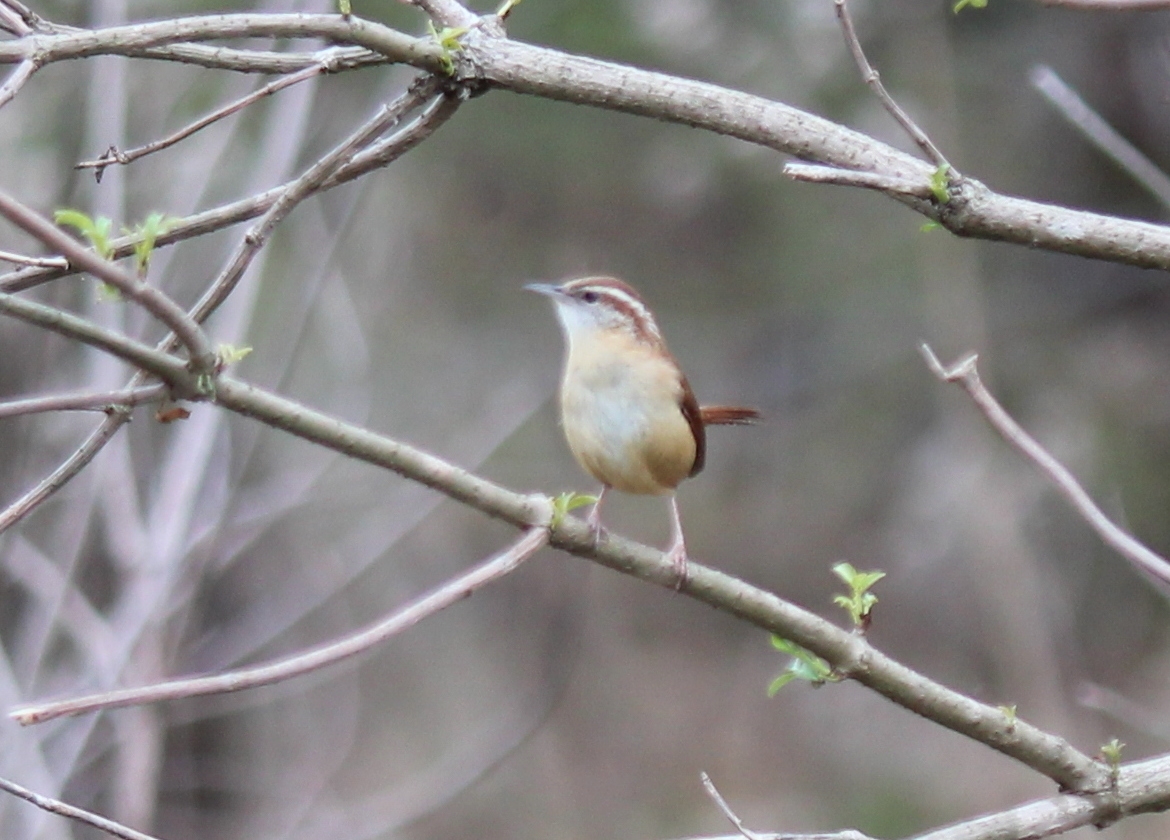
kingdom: Animalia
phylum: Chordata
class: Aves
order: Passeriformes
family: Troglodytidae
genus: Thryothorus
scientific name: Thryothorus ludovicianus
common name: Carolina wren
